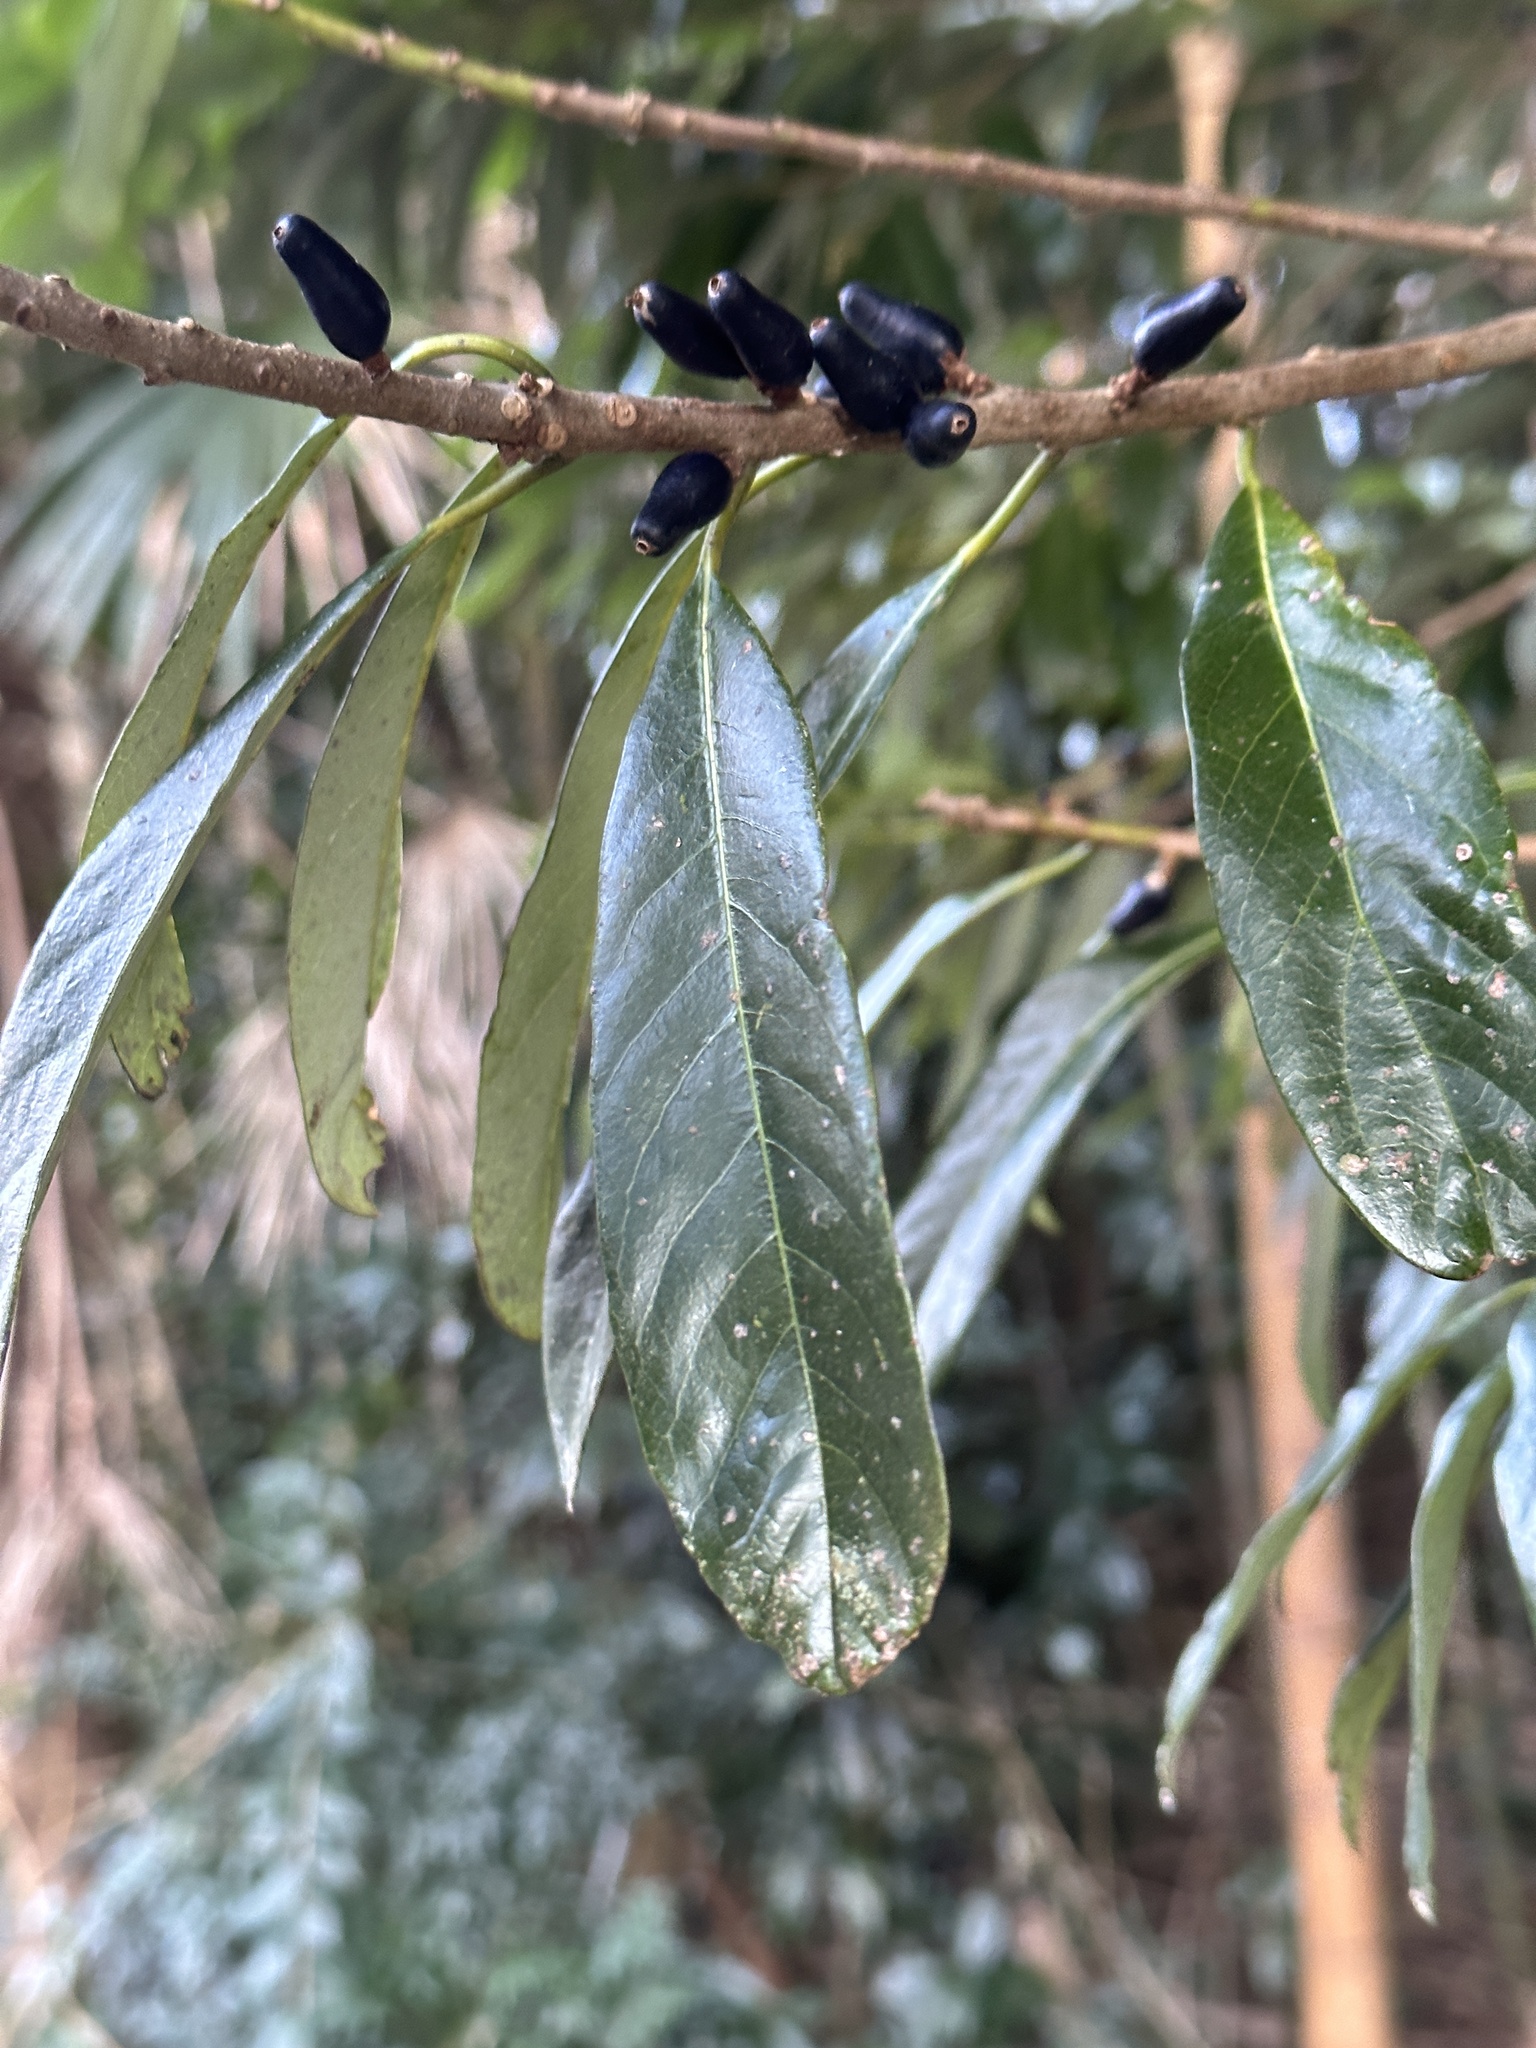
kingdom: Plantae
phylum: Tracheophyta
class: Magnoliopsida
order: Ericales
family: Symplocaceae
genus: Symplocos
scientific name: Symplocos glauca
